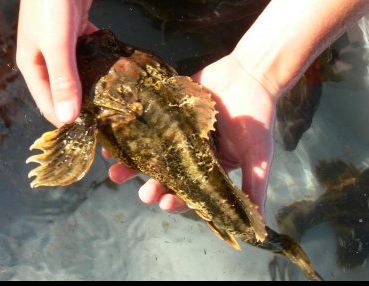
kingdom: Animalia
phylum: Chordata
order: Scorpaeniformes
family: Cottidae
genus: Enophrys
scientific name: Enophrys bison
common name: Buffalo sculpin
